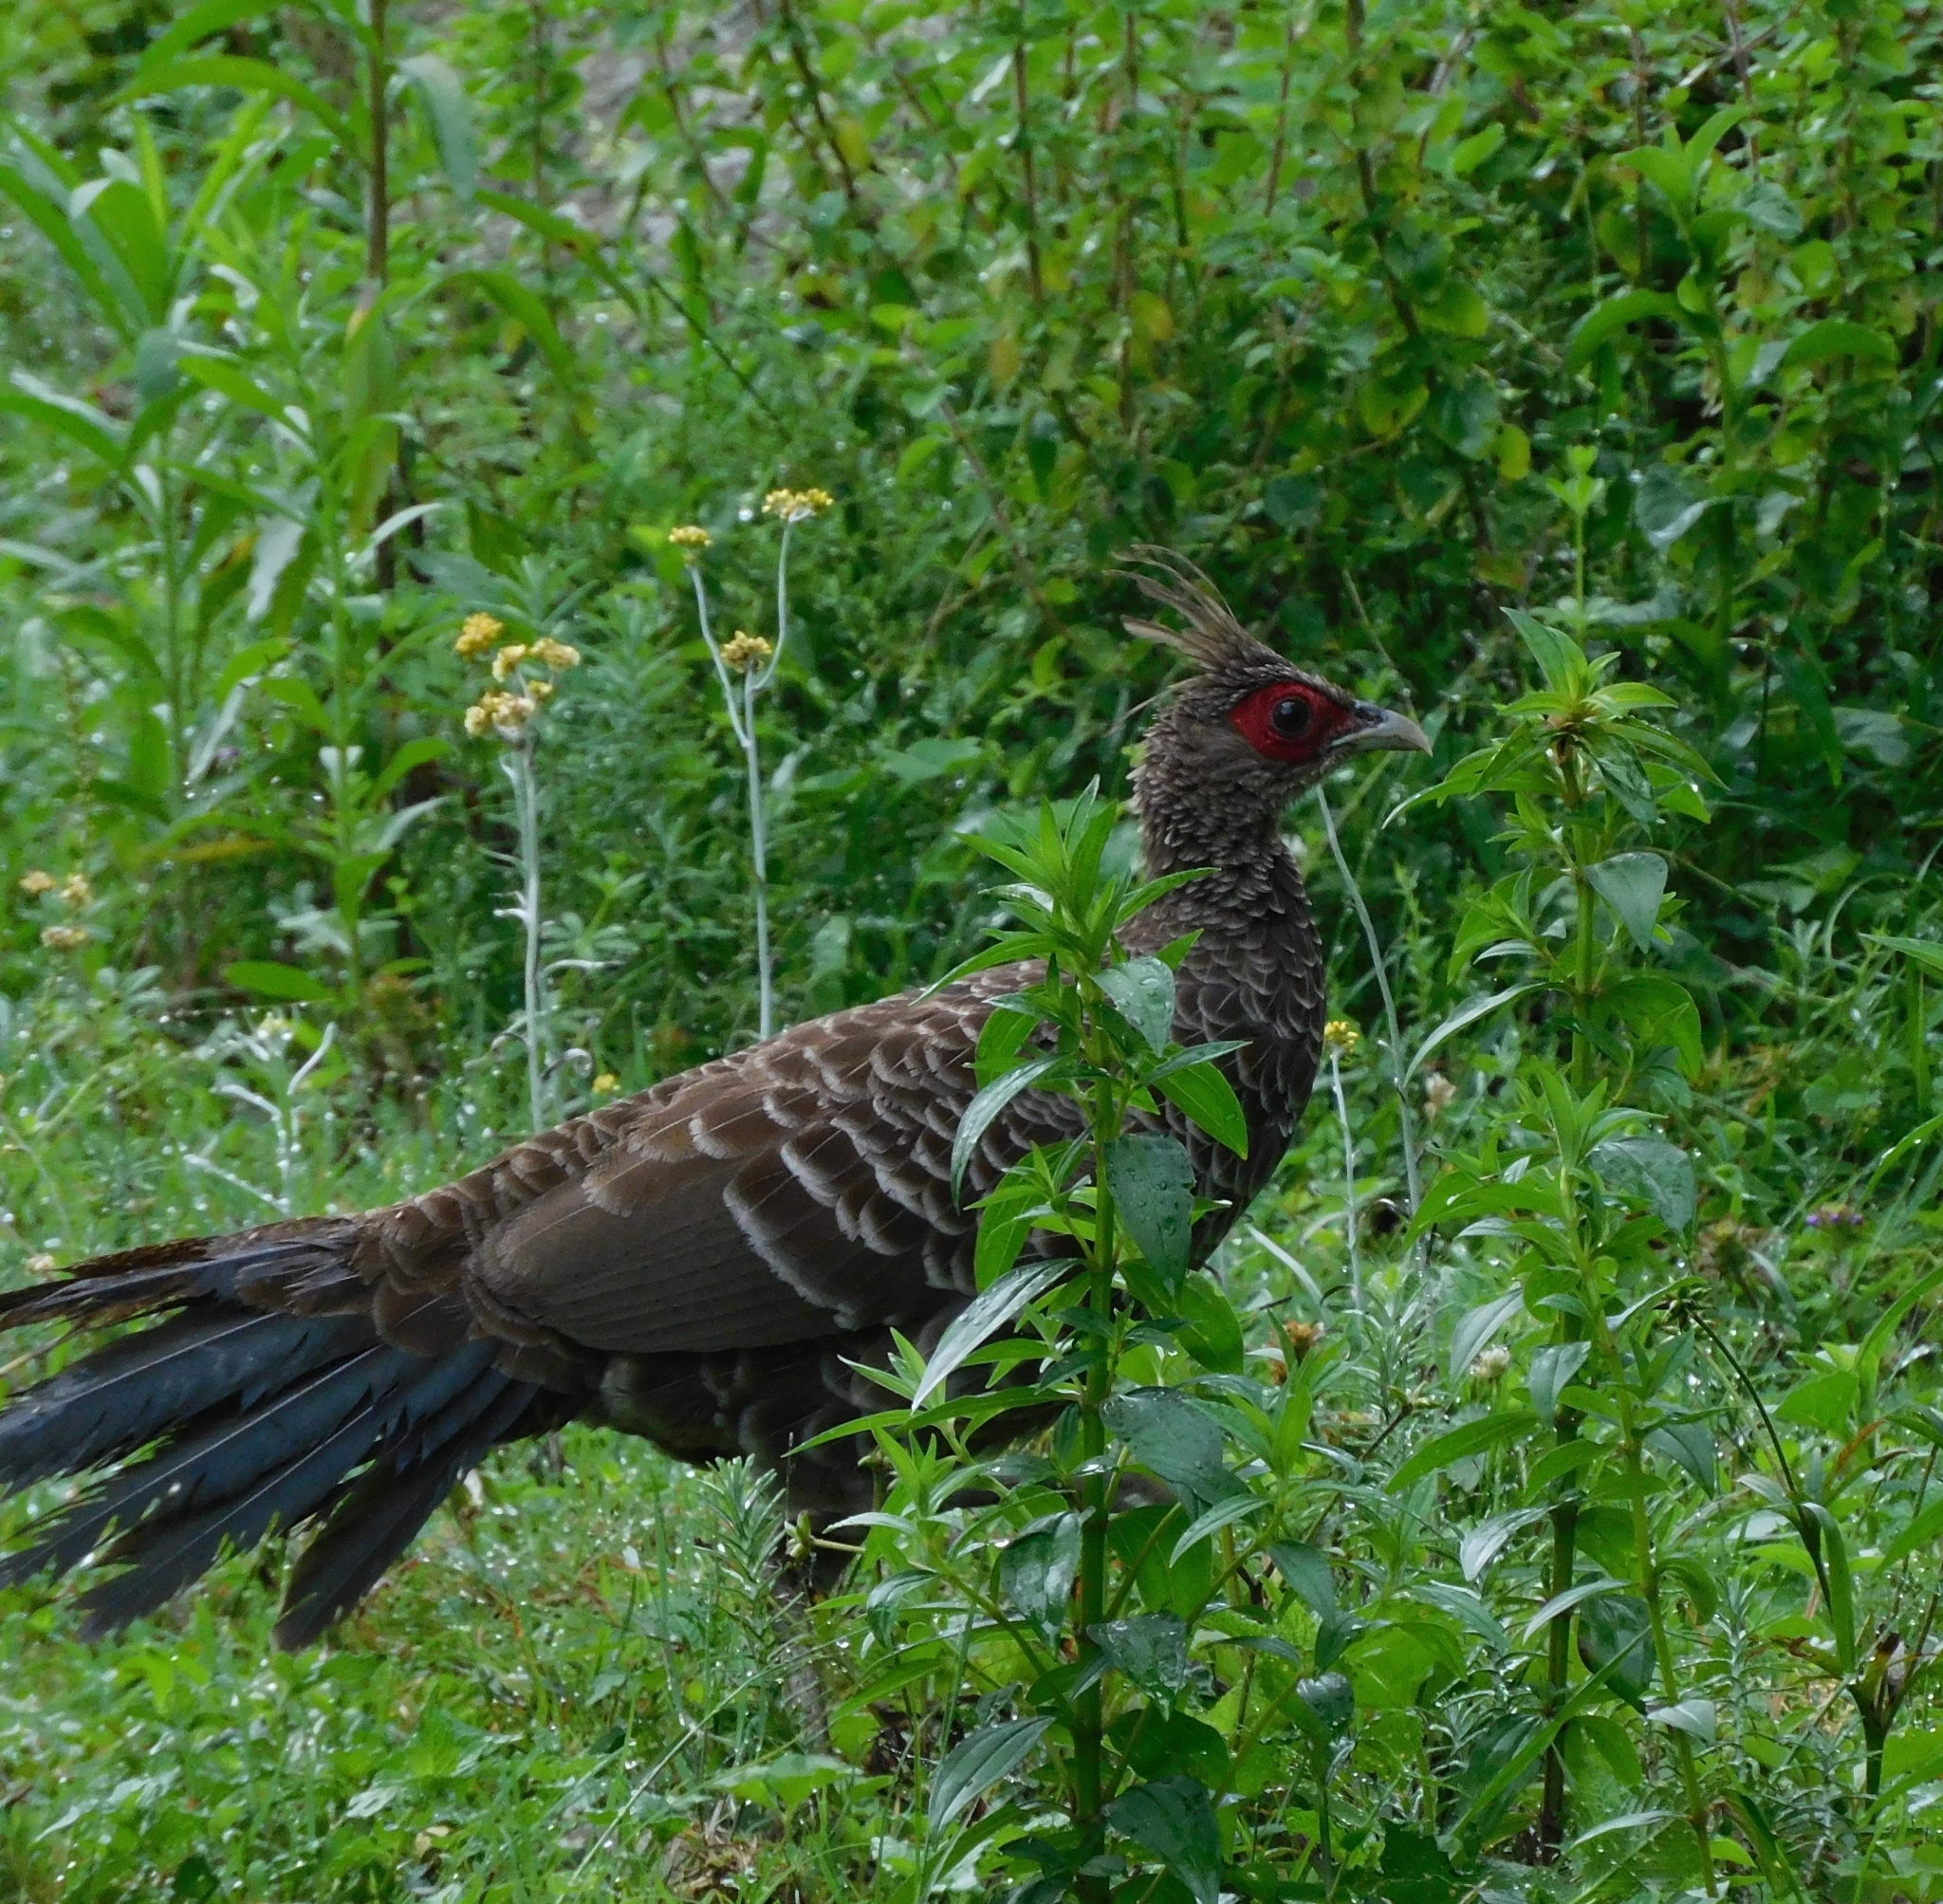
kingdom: Animalia
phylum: Chordata
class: Aves
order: Galliformes
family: Phasianidae
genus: Lophura
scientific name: Lophura leucomelanos
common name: Kalij pheasant
